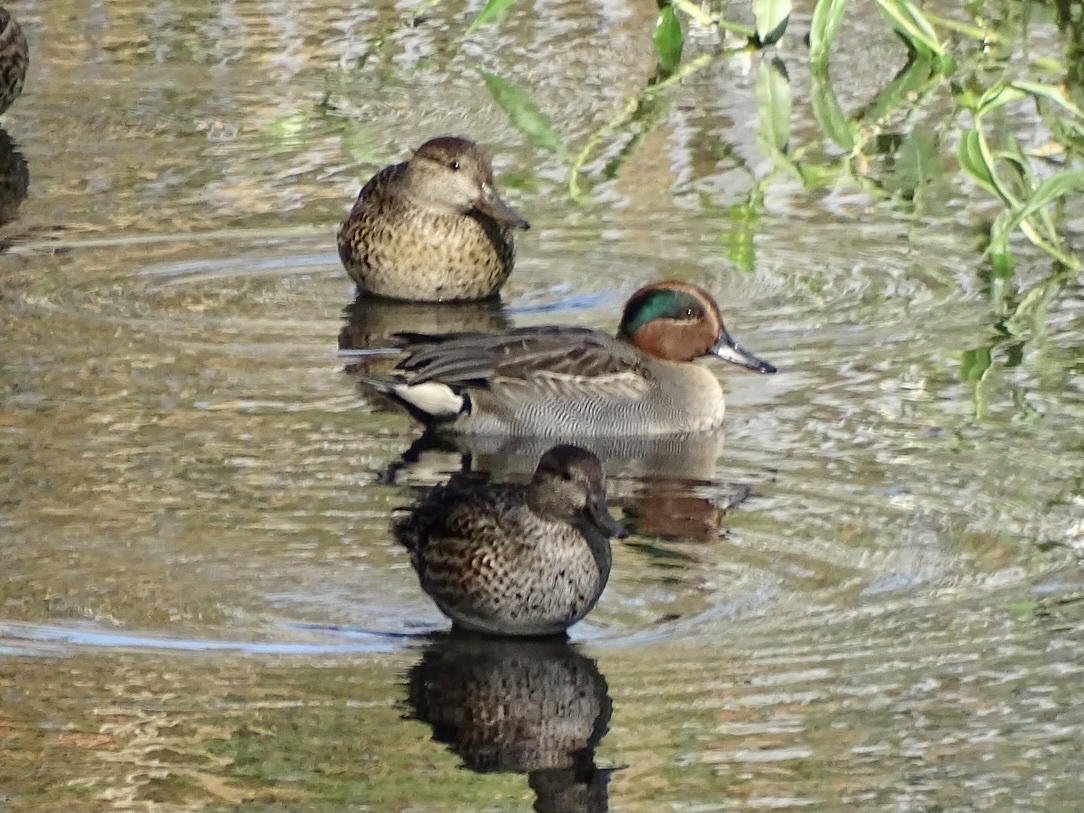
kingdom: Animalia
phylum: Chordata
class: Aves
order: Anseriformes
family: Anatidae
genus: Anas
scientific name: Anas crecca
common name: Eurasian teal
